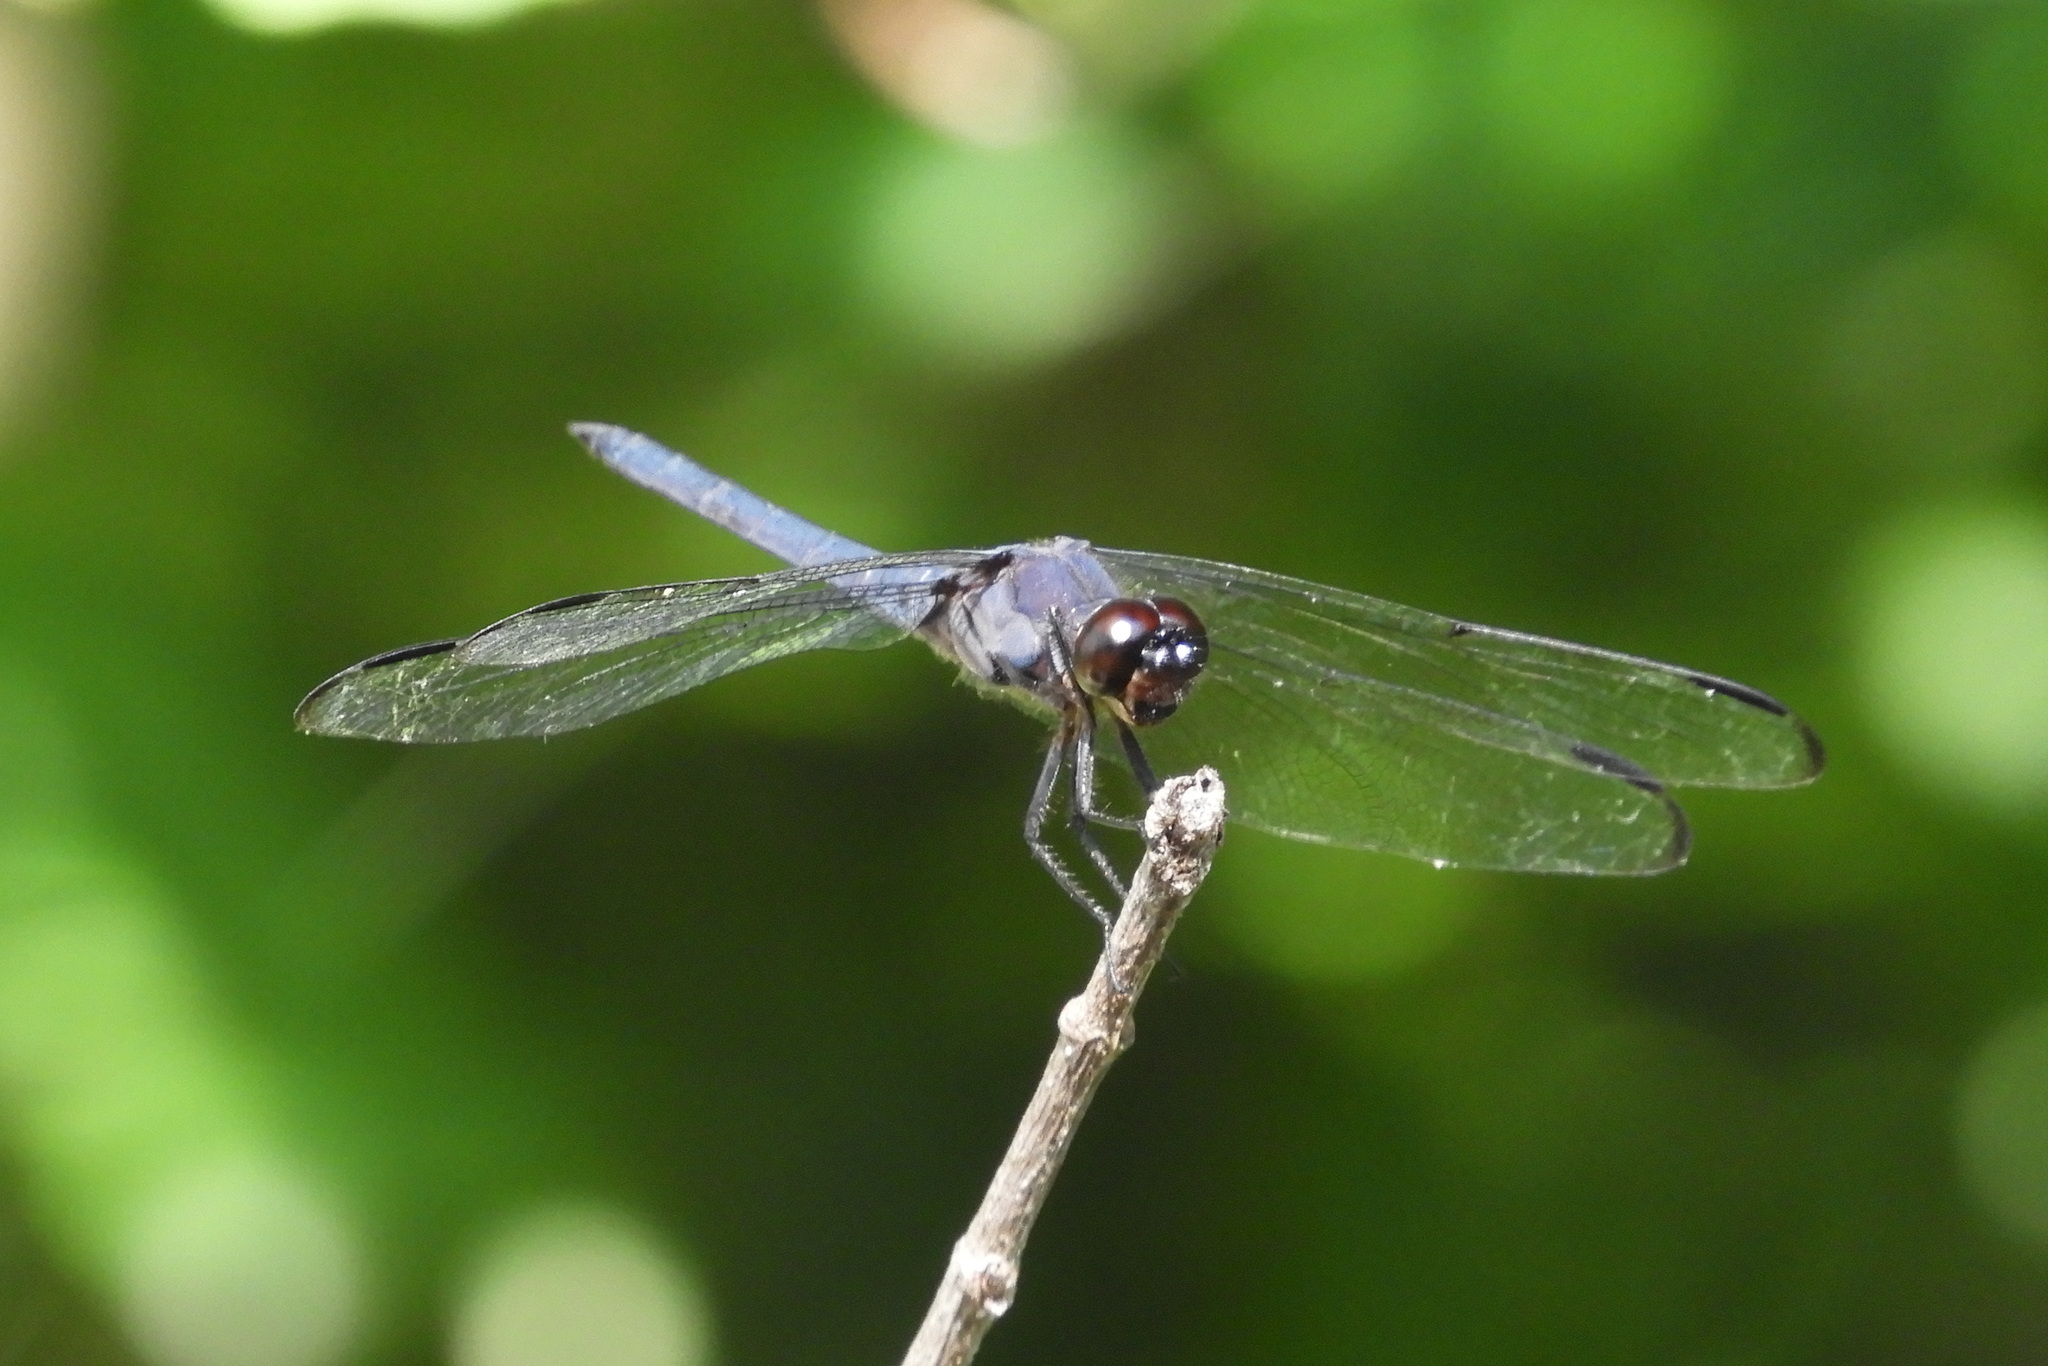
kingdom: Animalia
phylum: Arthropoda
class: Insecta
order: Odonata
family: Libellulidae
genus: Libellula
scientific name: Libellula incesta
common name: Slaty skimmer
